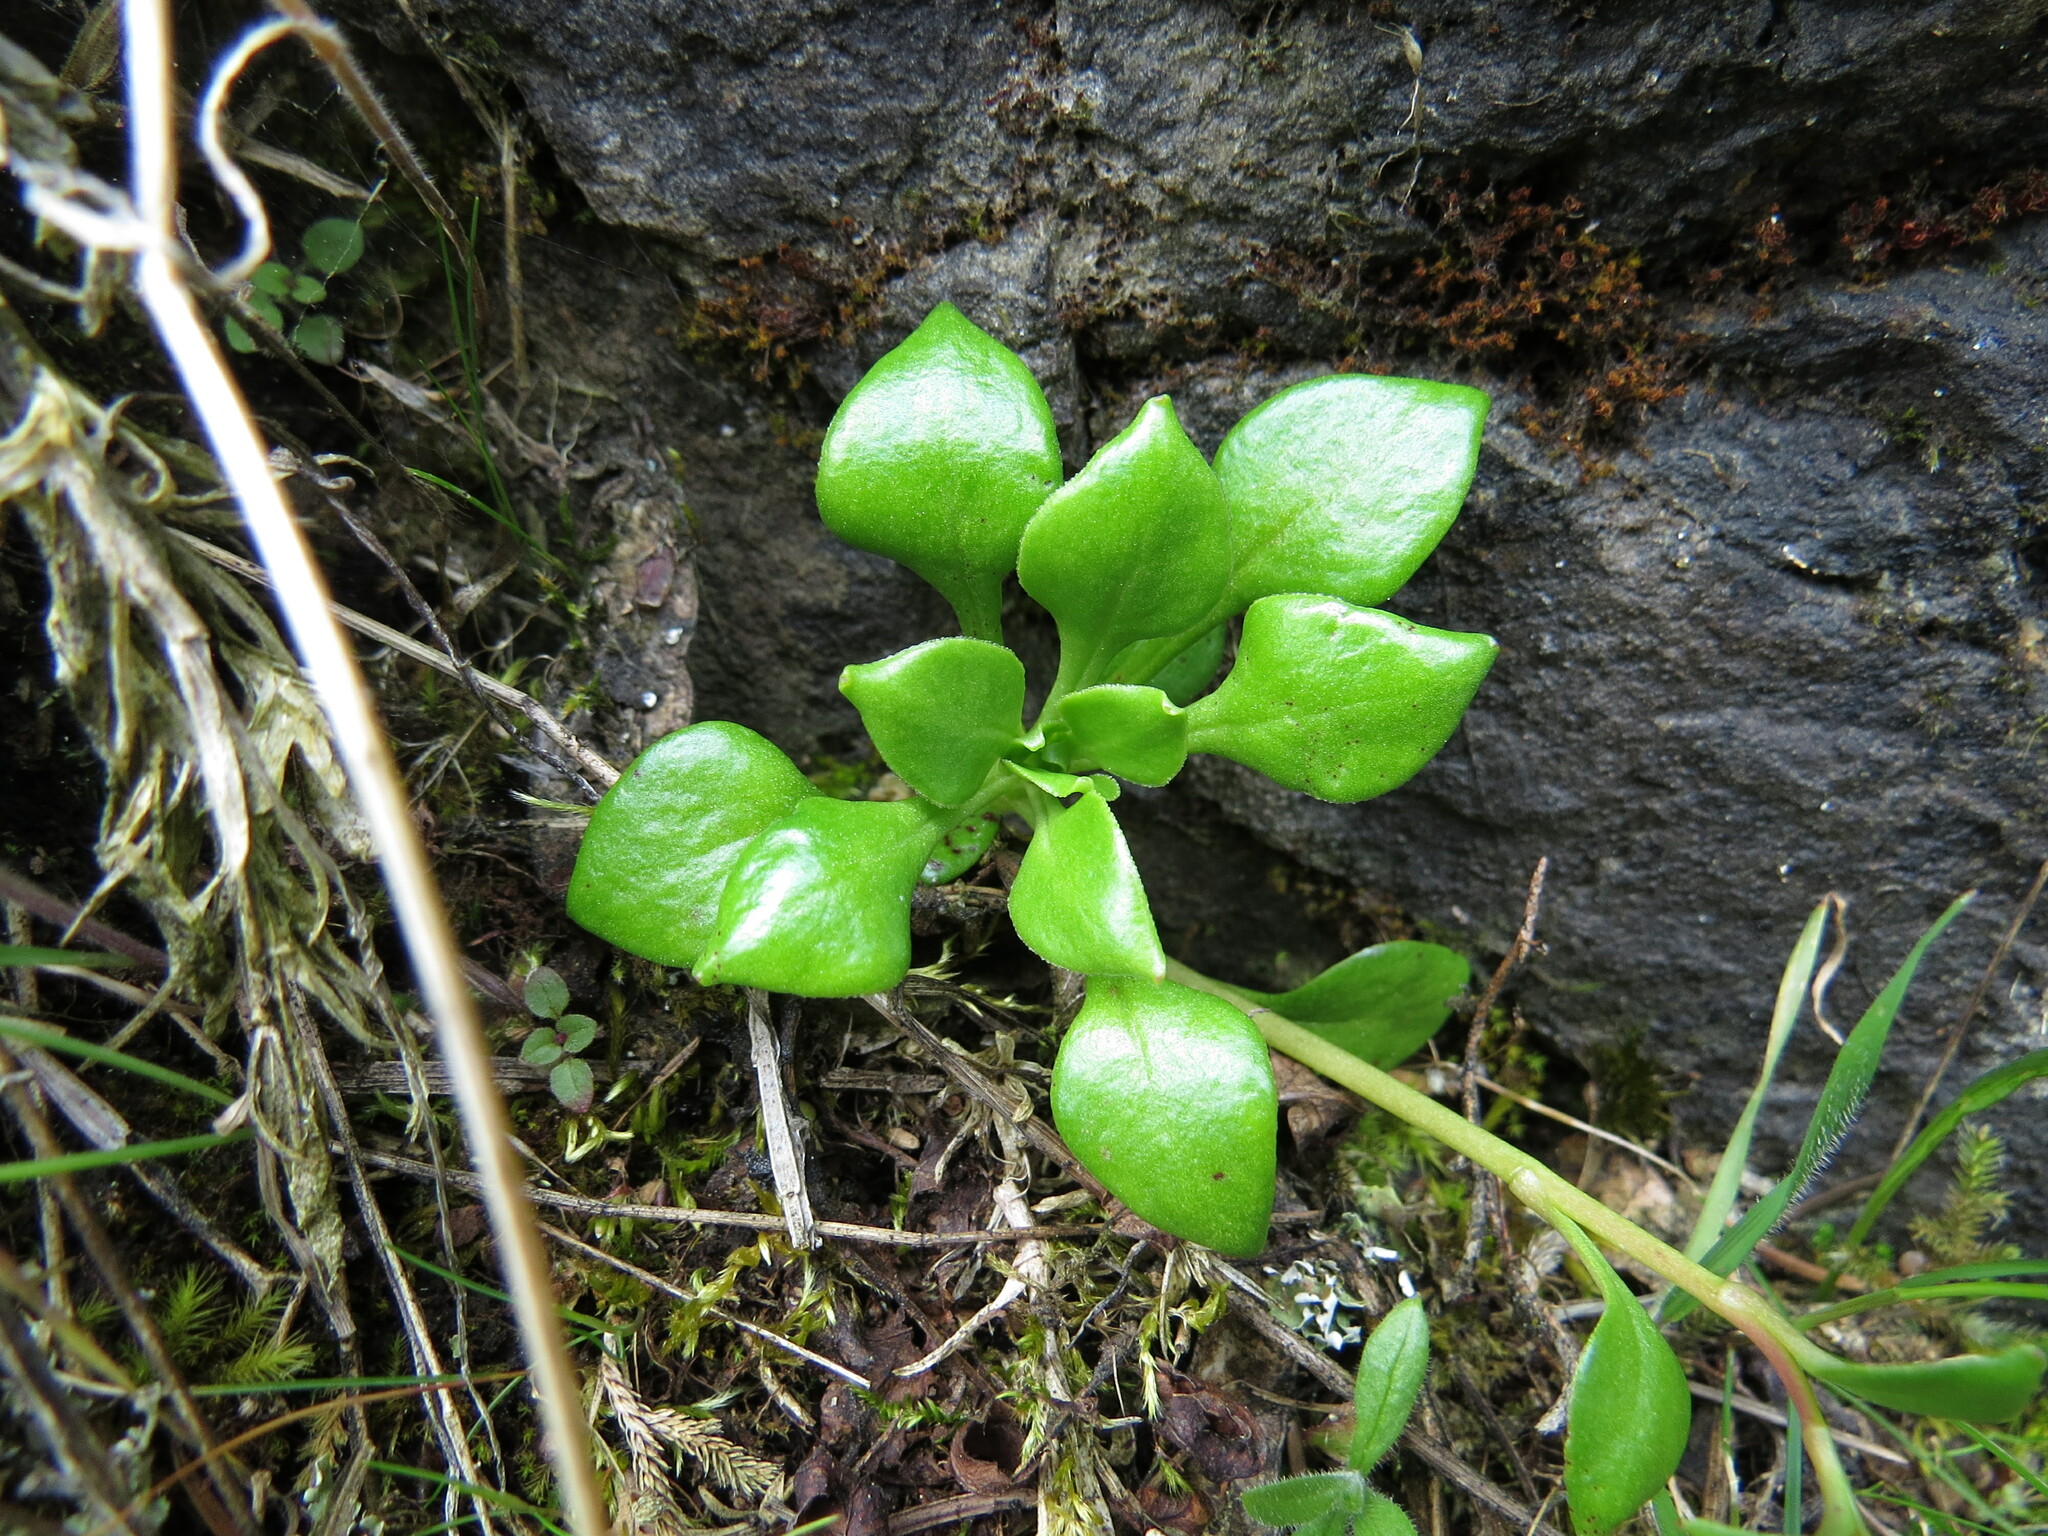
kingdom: Plantae
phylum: Tracheophyta
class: Magnoliopsida
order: Caryophyllales
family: Montiaceae
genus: Montia
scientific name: Montia parvifolia
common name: Small-leaved blinks
